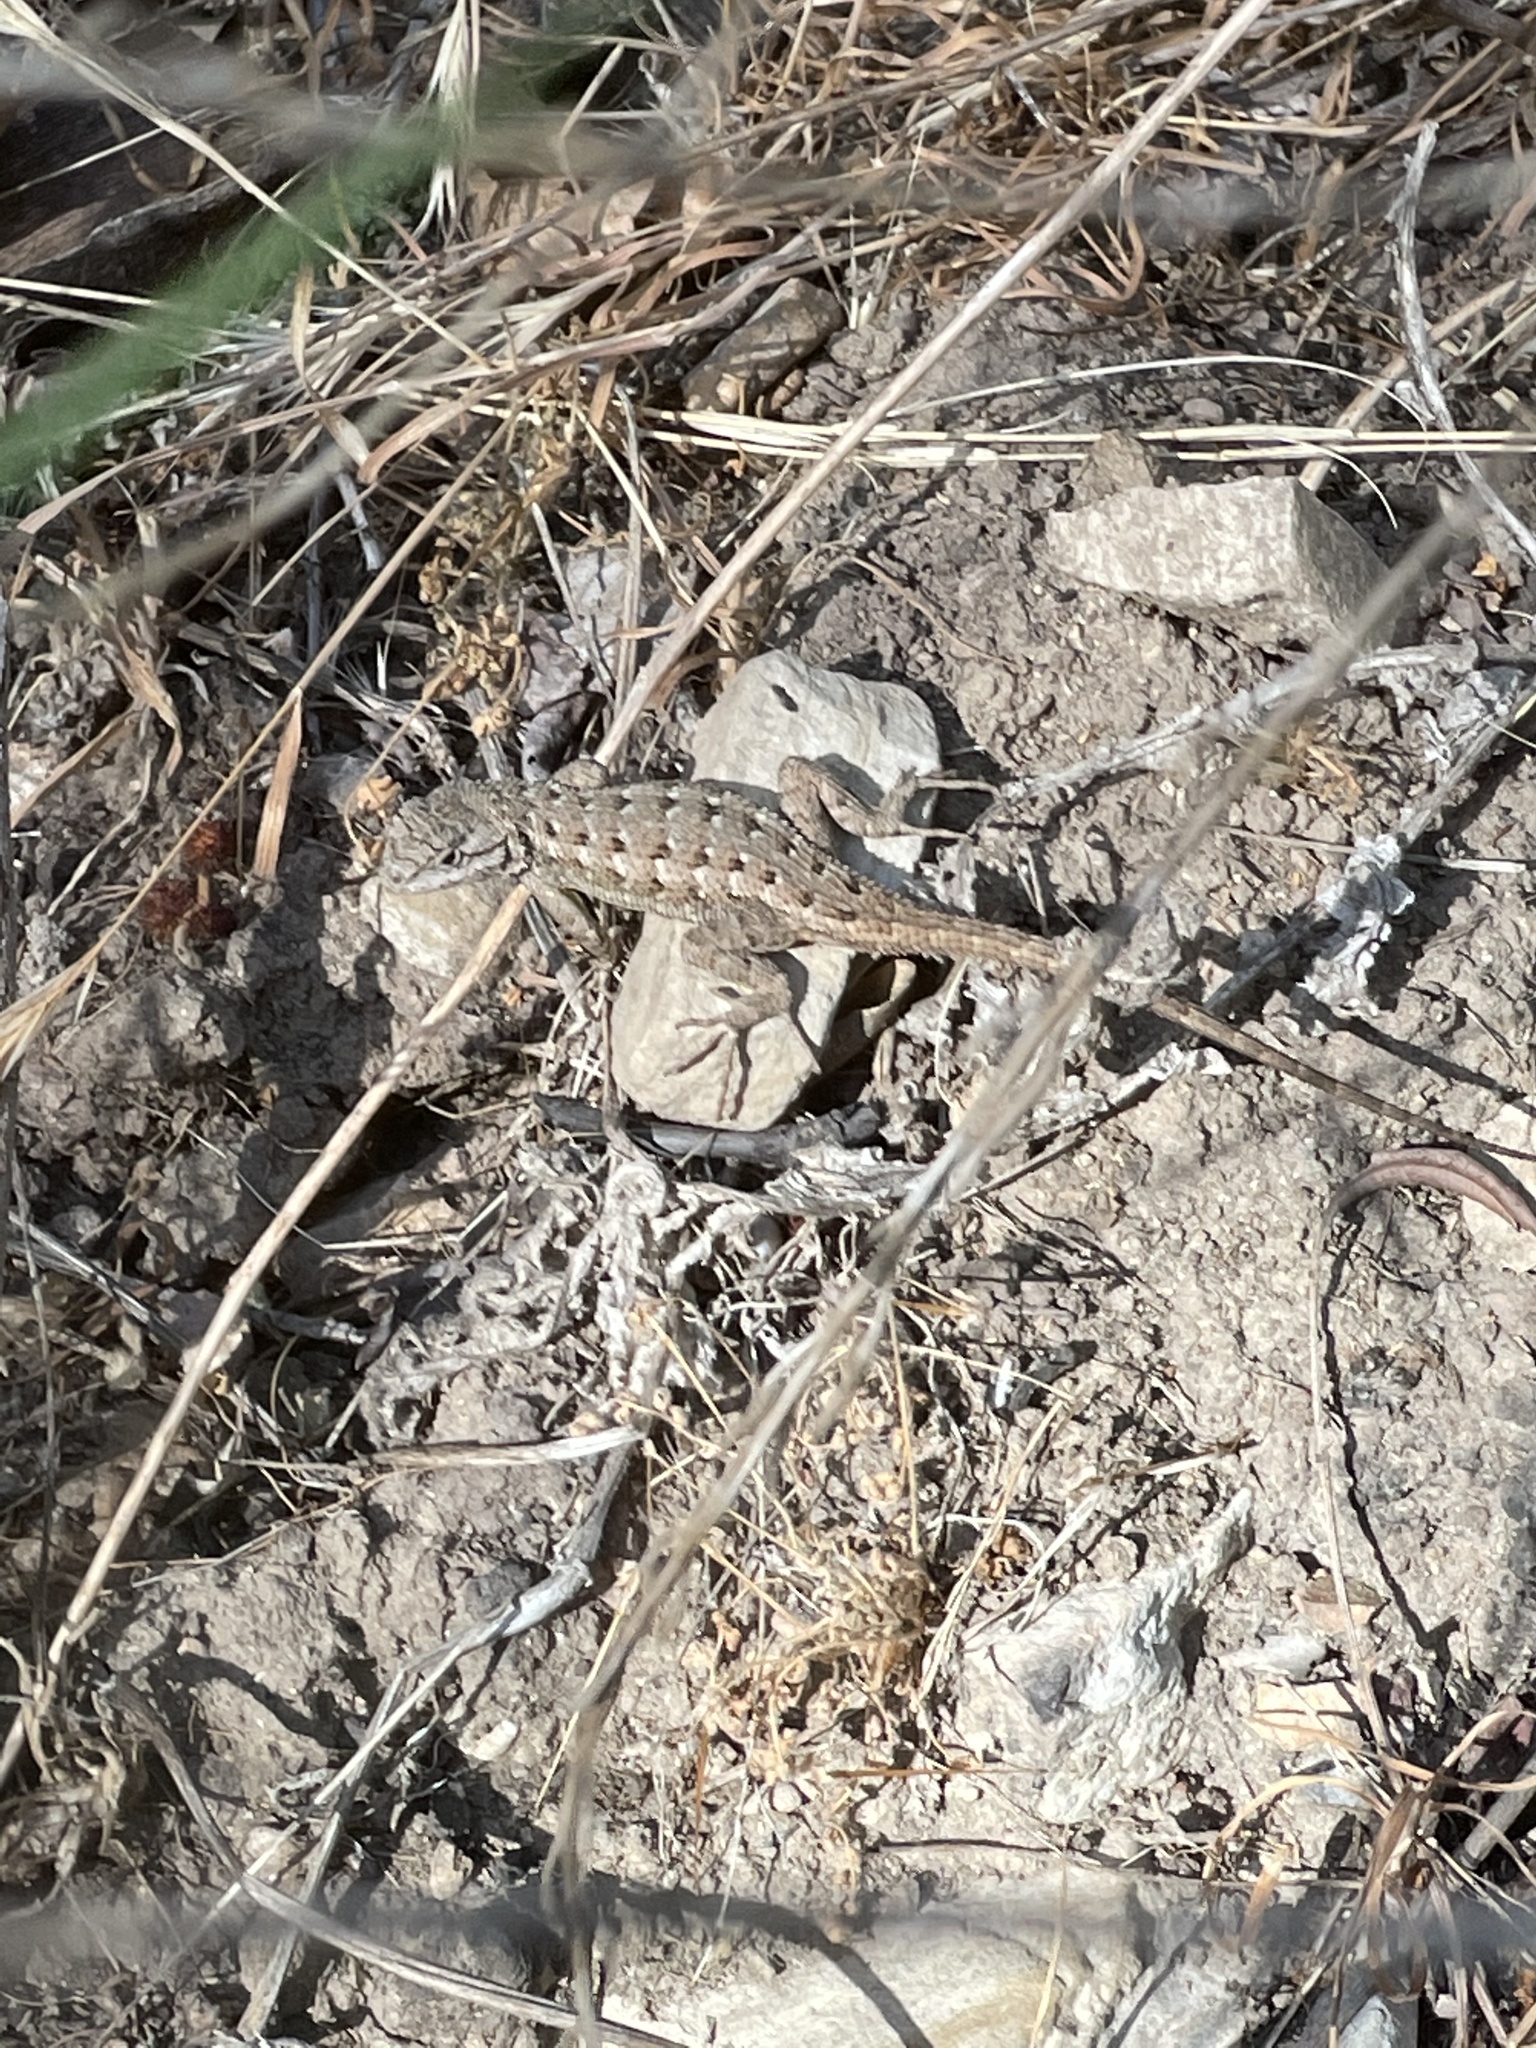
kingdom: Animalia
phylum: Chordata
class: Squamata
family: Phrynosomatidae
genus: Sceloporus
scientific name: Sceloporus occidentalis
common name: Western fence lizard
